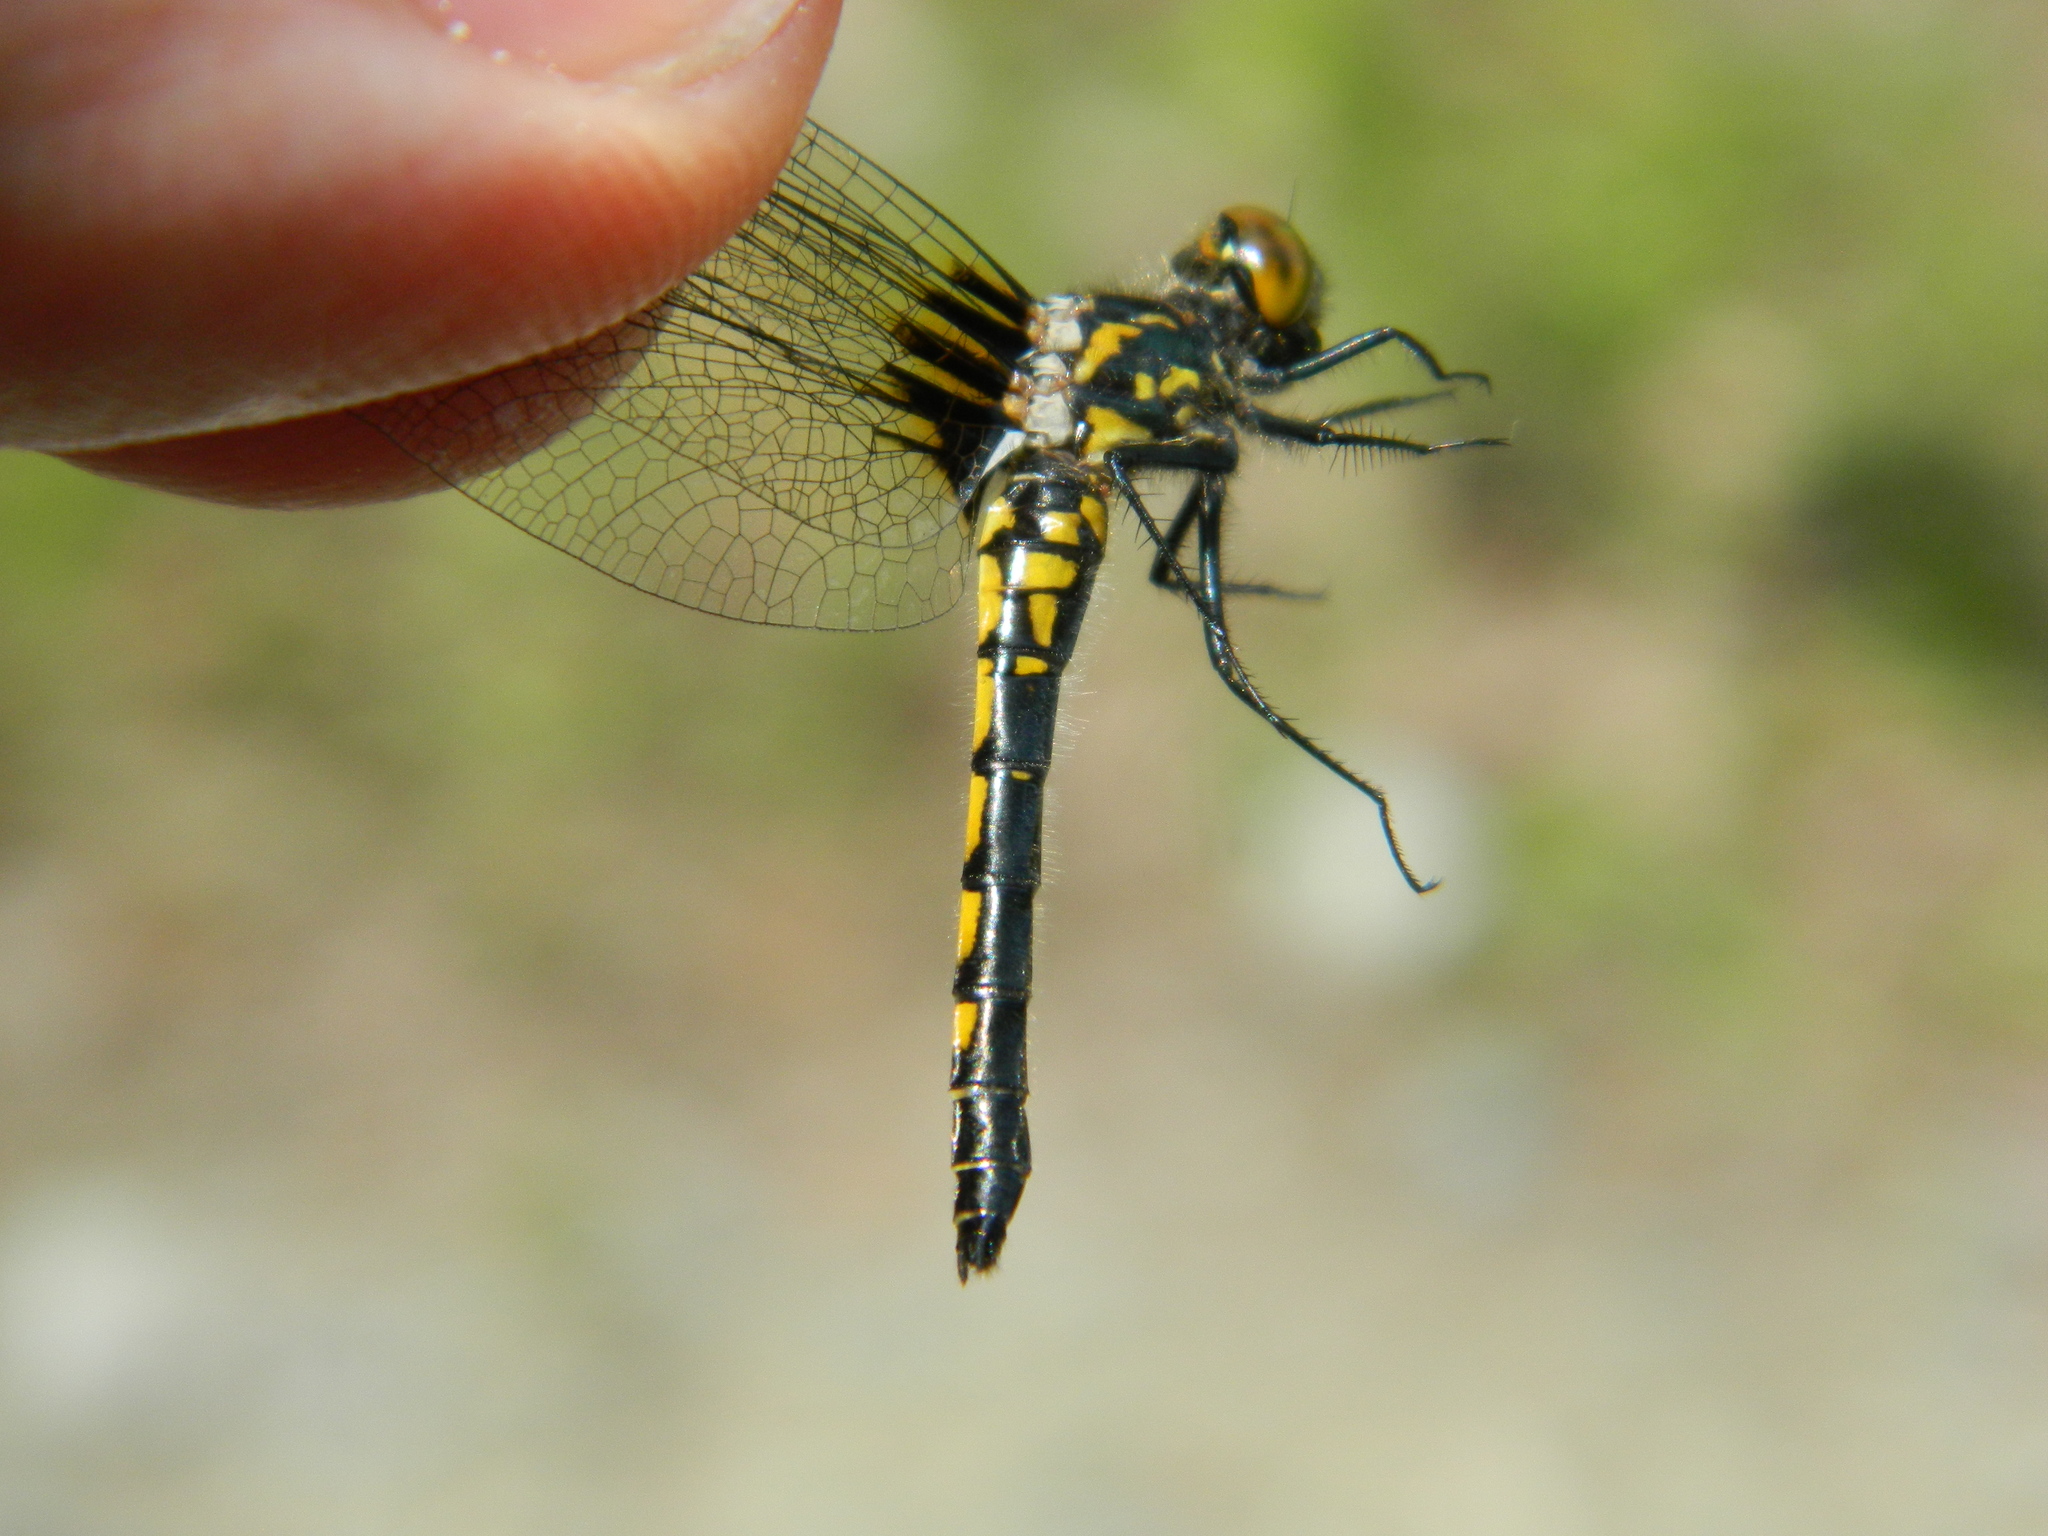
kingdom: Animalia
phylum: Arthropoda
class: Insecta
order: Odonata
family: Libellulidae
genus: Leucorrhinia
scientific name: Leucorrhinia hudsonica
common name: Hudsonian whiteface
